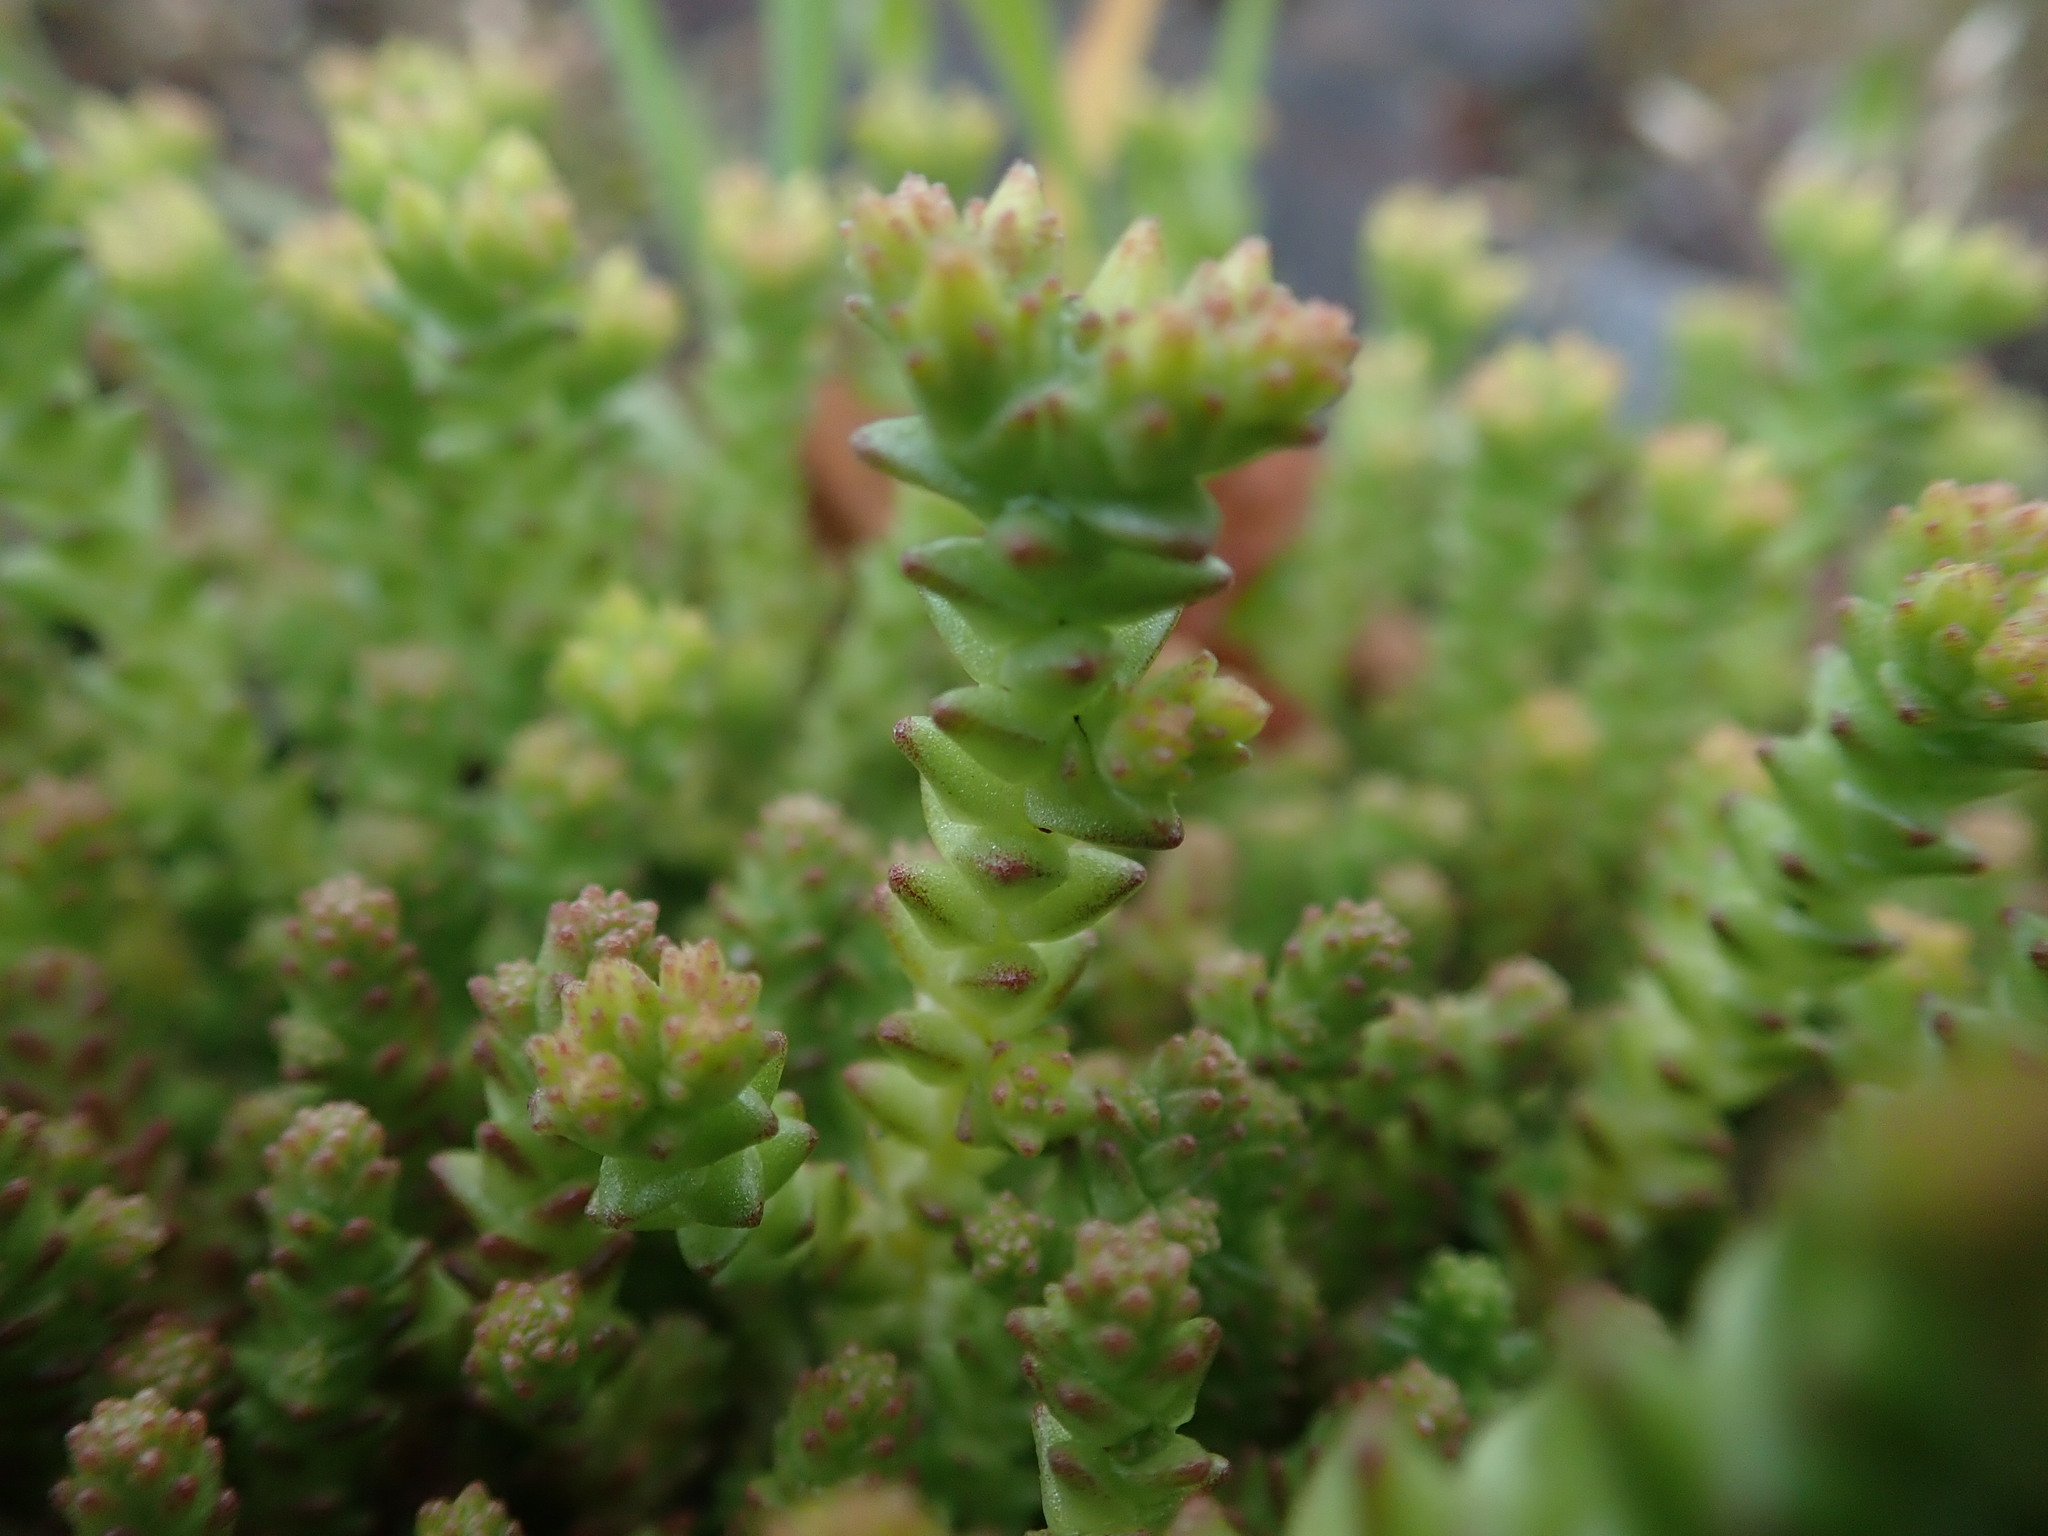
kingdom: Plantae
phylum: Tracheophyta
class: Magnoliopsida
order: Saxifragales
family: Crassulaceae
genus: Sedum
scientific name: Sedum acre
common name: Biting stonecrop
